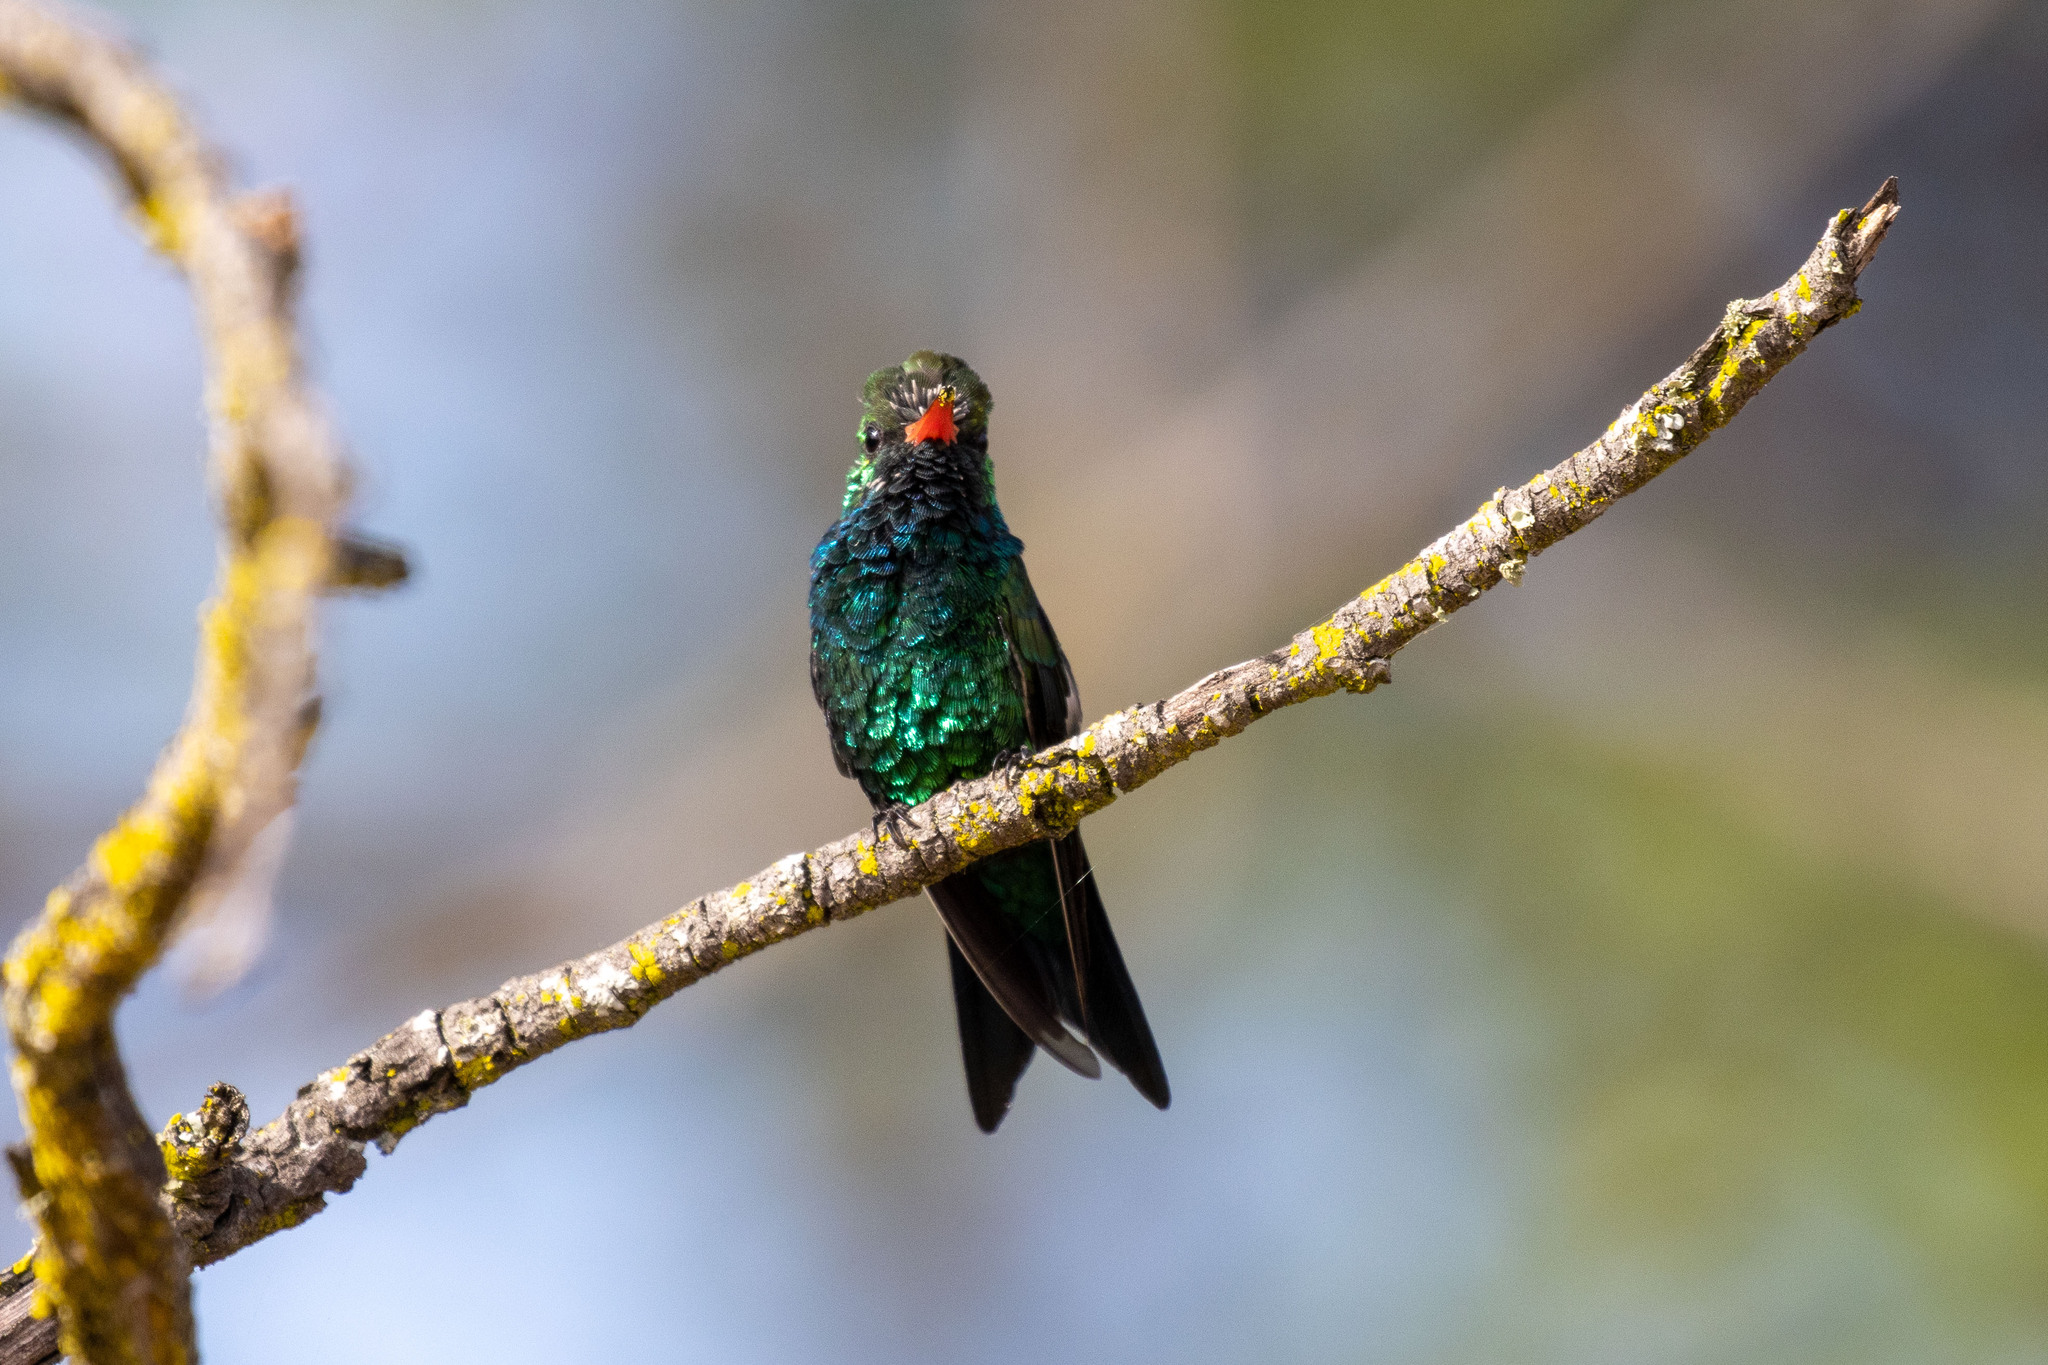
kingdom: Animalia
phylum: Chordata
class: Aves
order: Apodiformes
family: Trochilidae
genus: Chlorostilbon
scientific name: Chlorostilbon lucidus
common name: Glittering-bellied emerald
